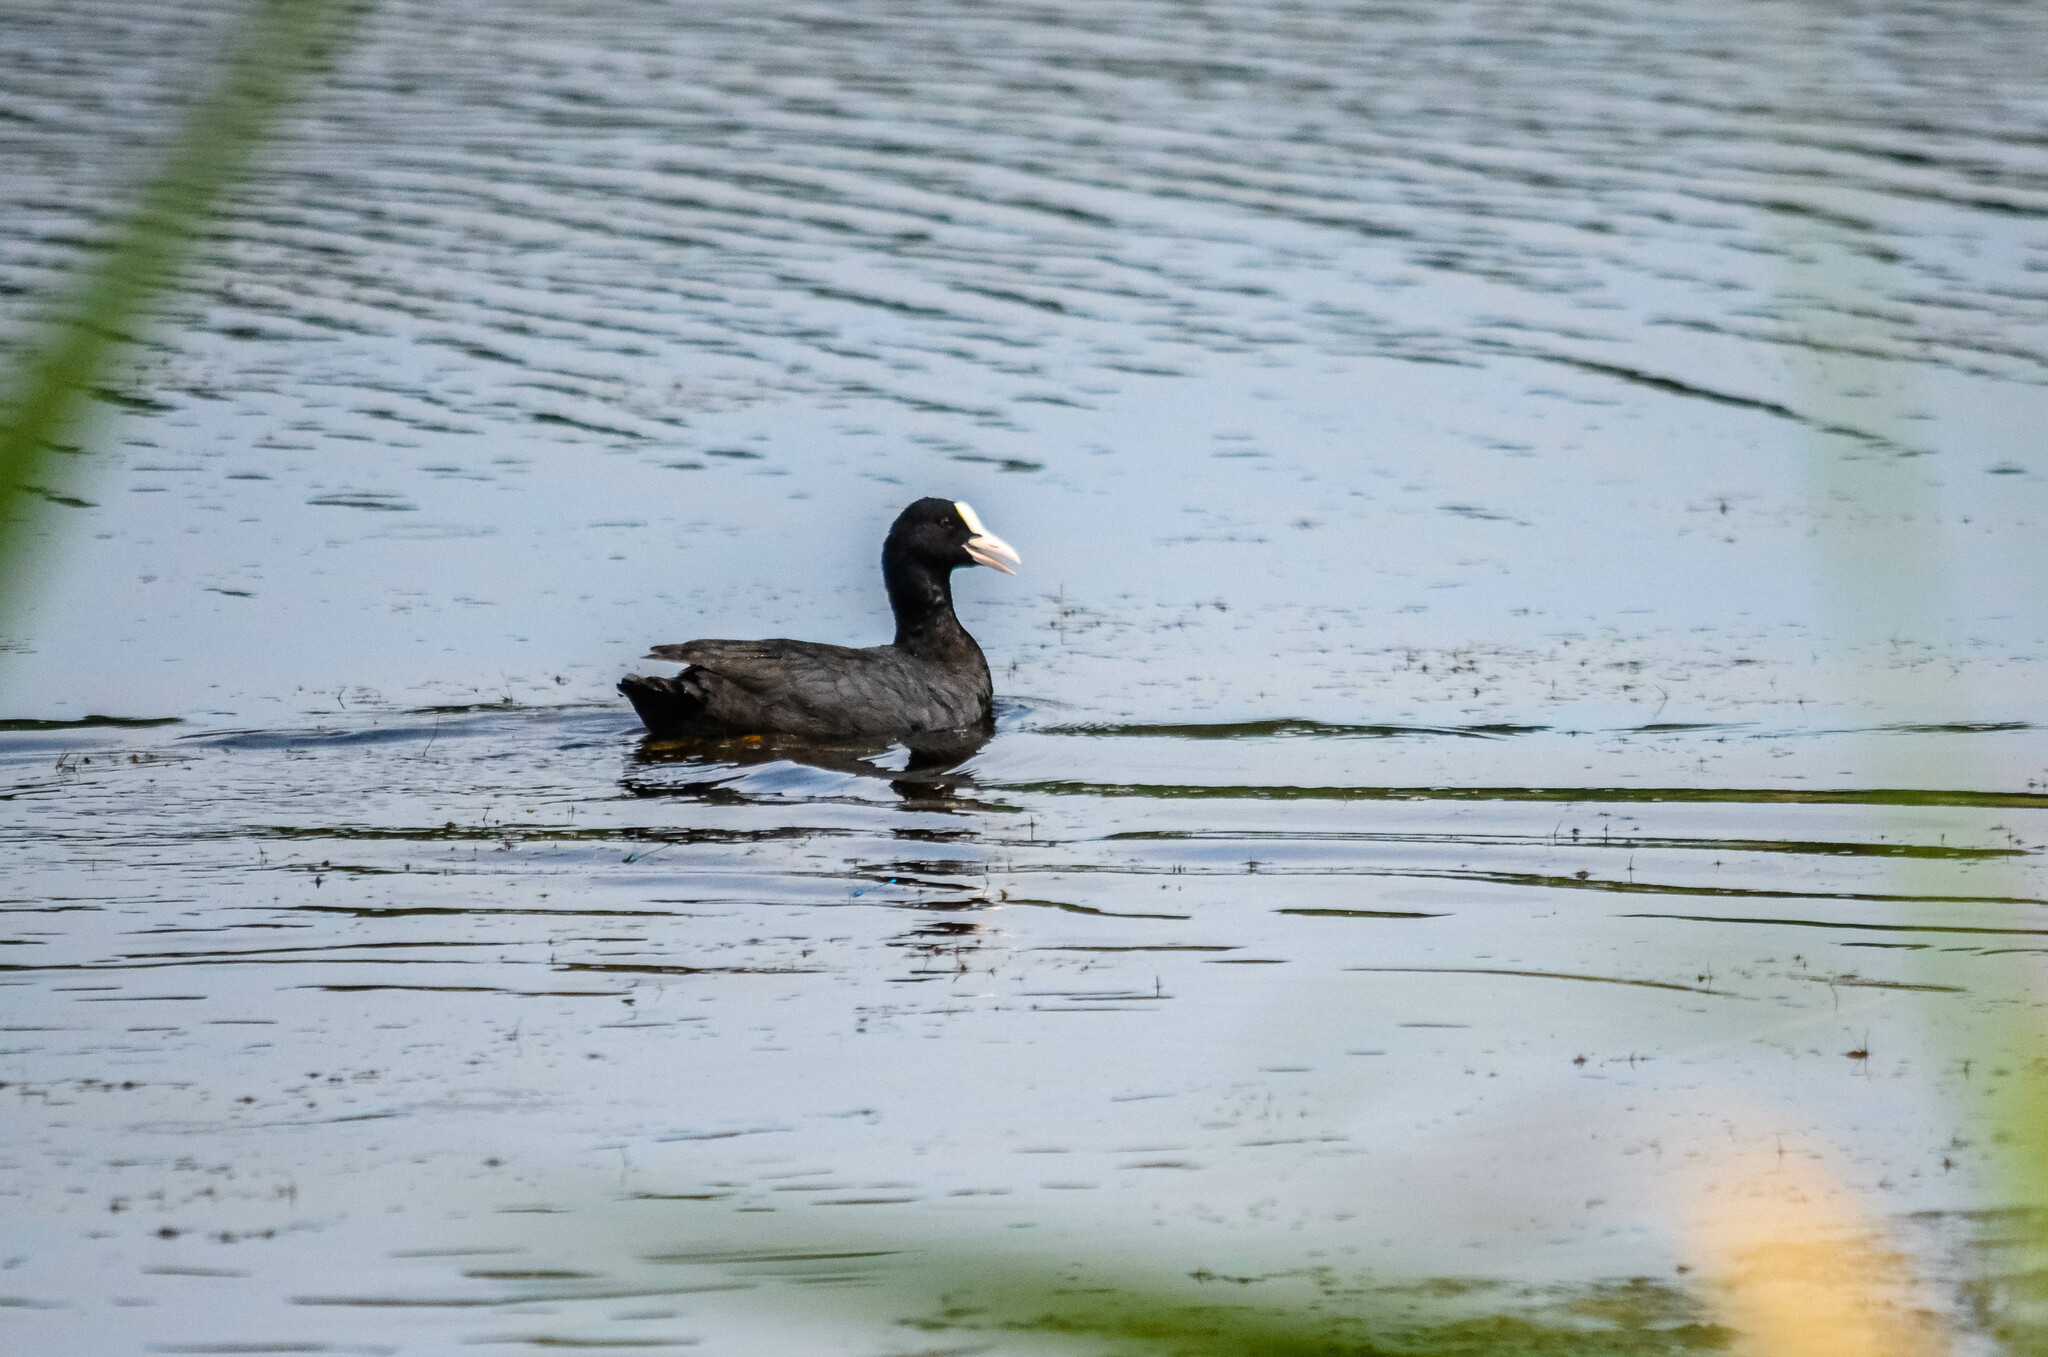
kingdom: Animalia
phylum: Chordata
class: Aves
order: Gruiformes
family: Rallidae
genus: Fulica
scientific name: Fulica atra
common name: Eurasian coot
